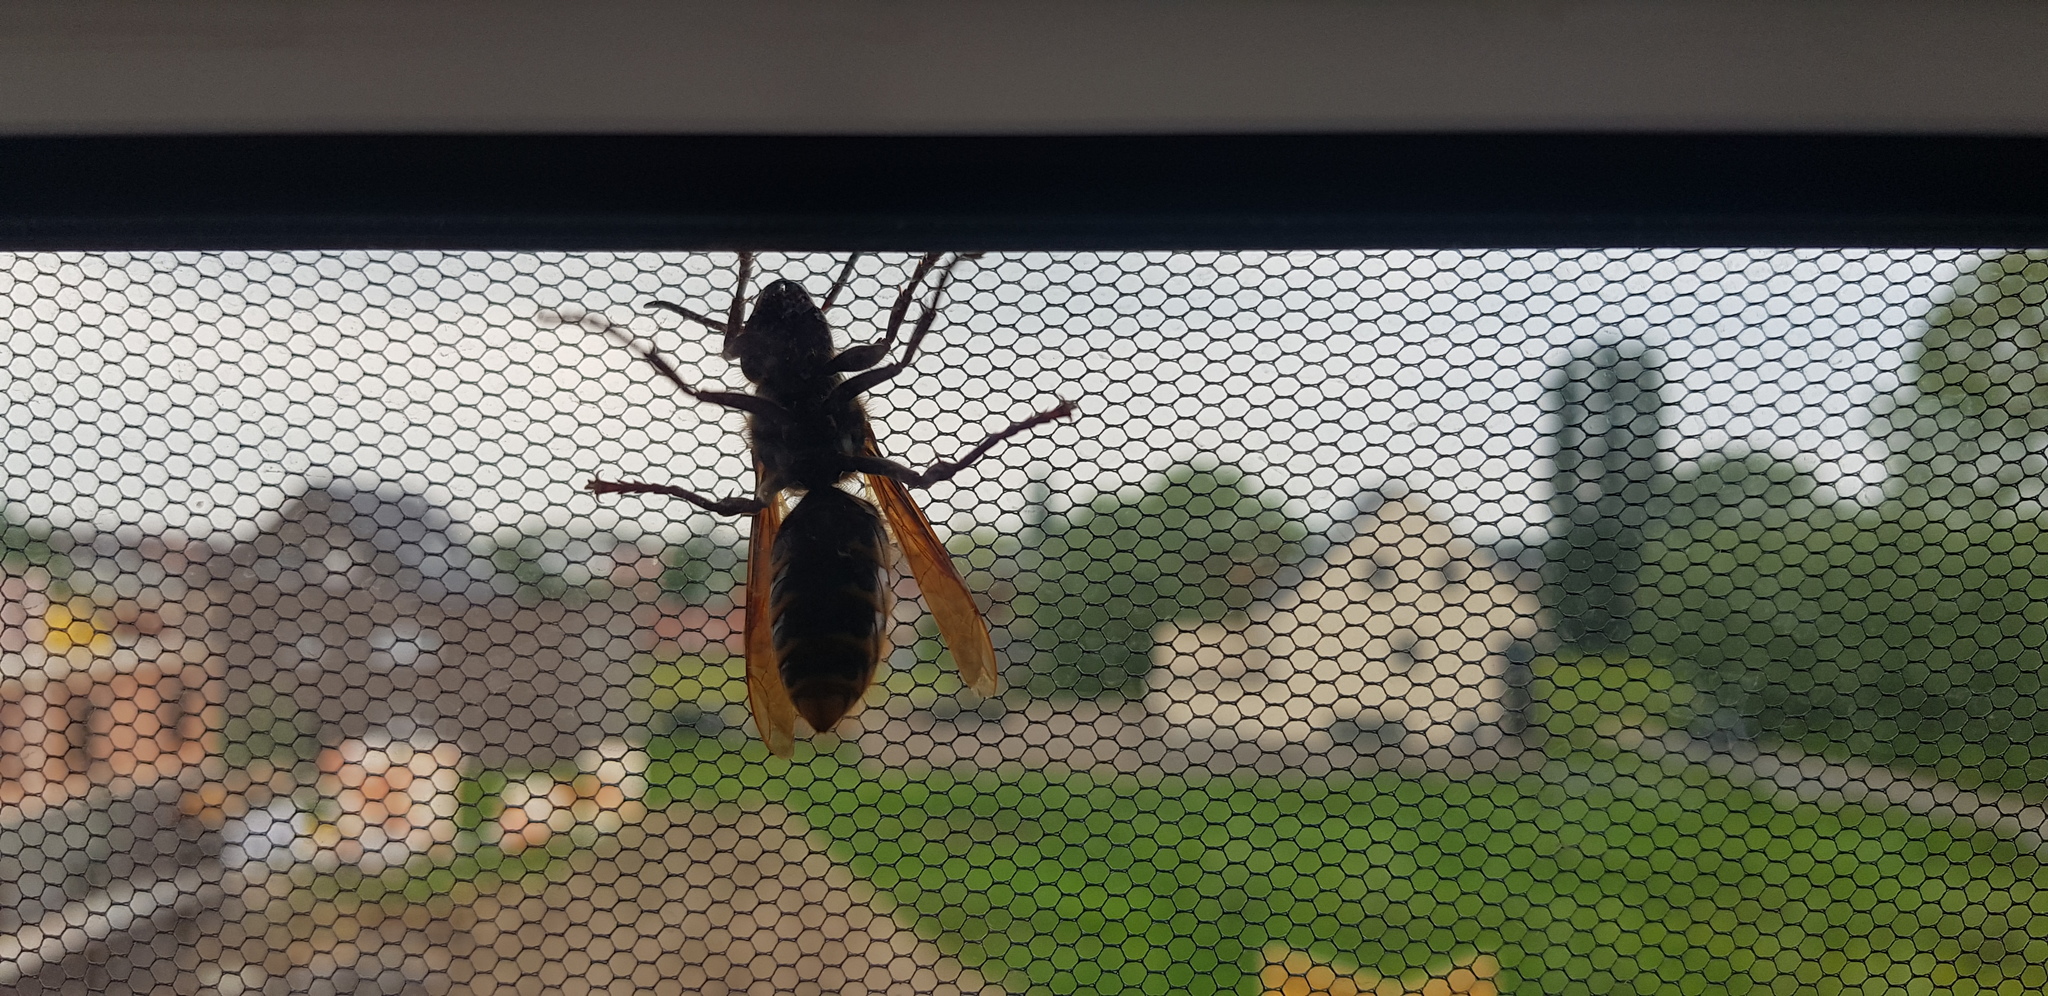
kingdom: Animalia
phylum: Arthropoda
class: Insecta
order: Hymenoptera
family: Vespidae
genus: Vespa
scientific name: Vespa crabro
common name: Hornet
